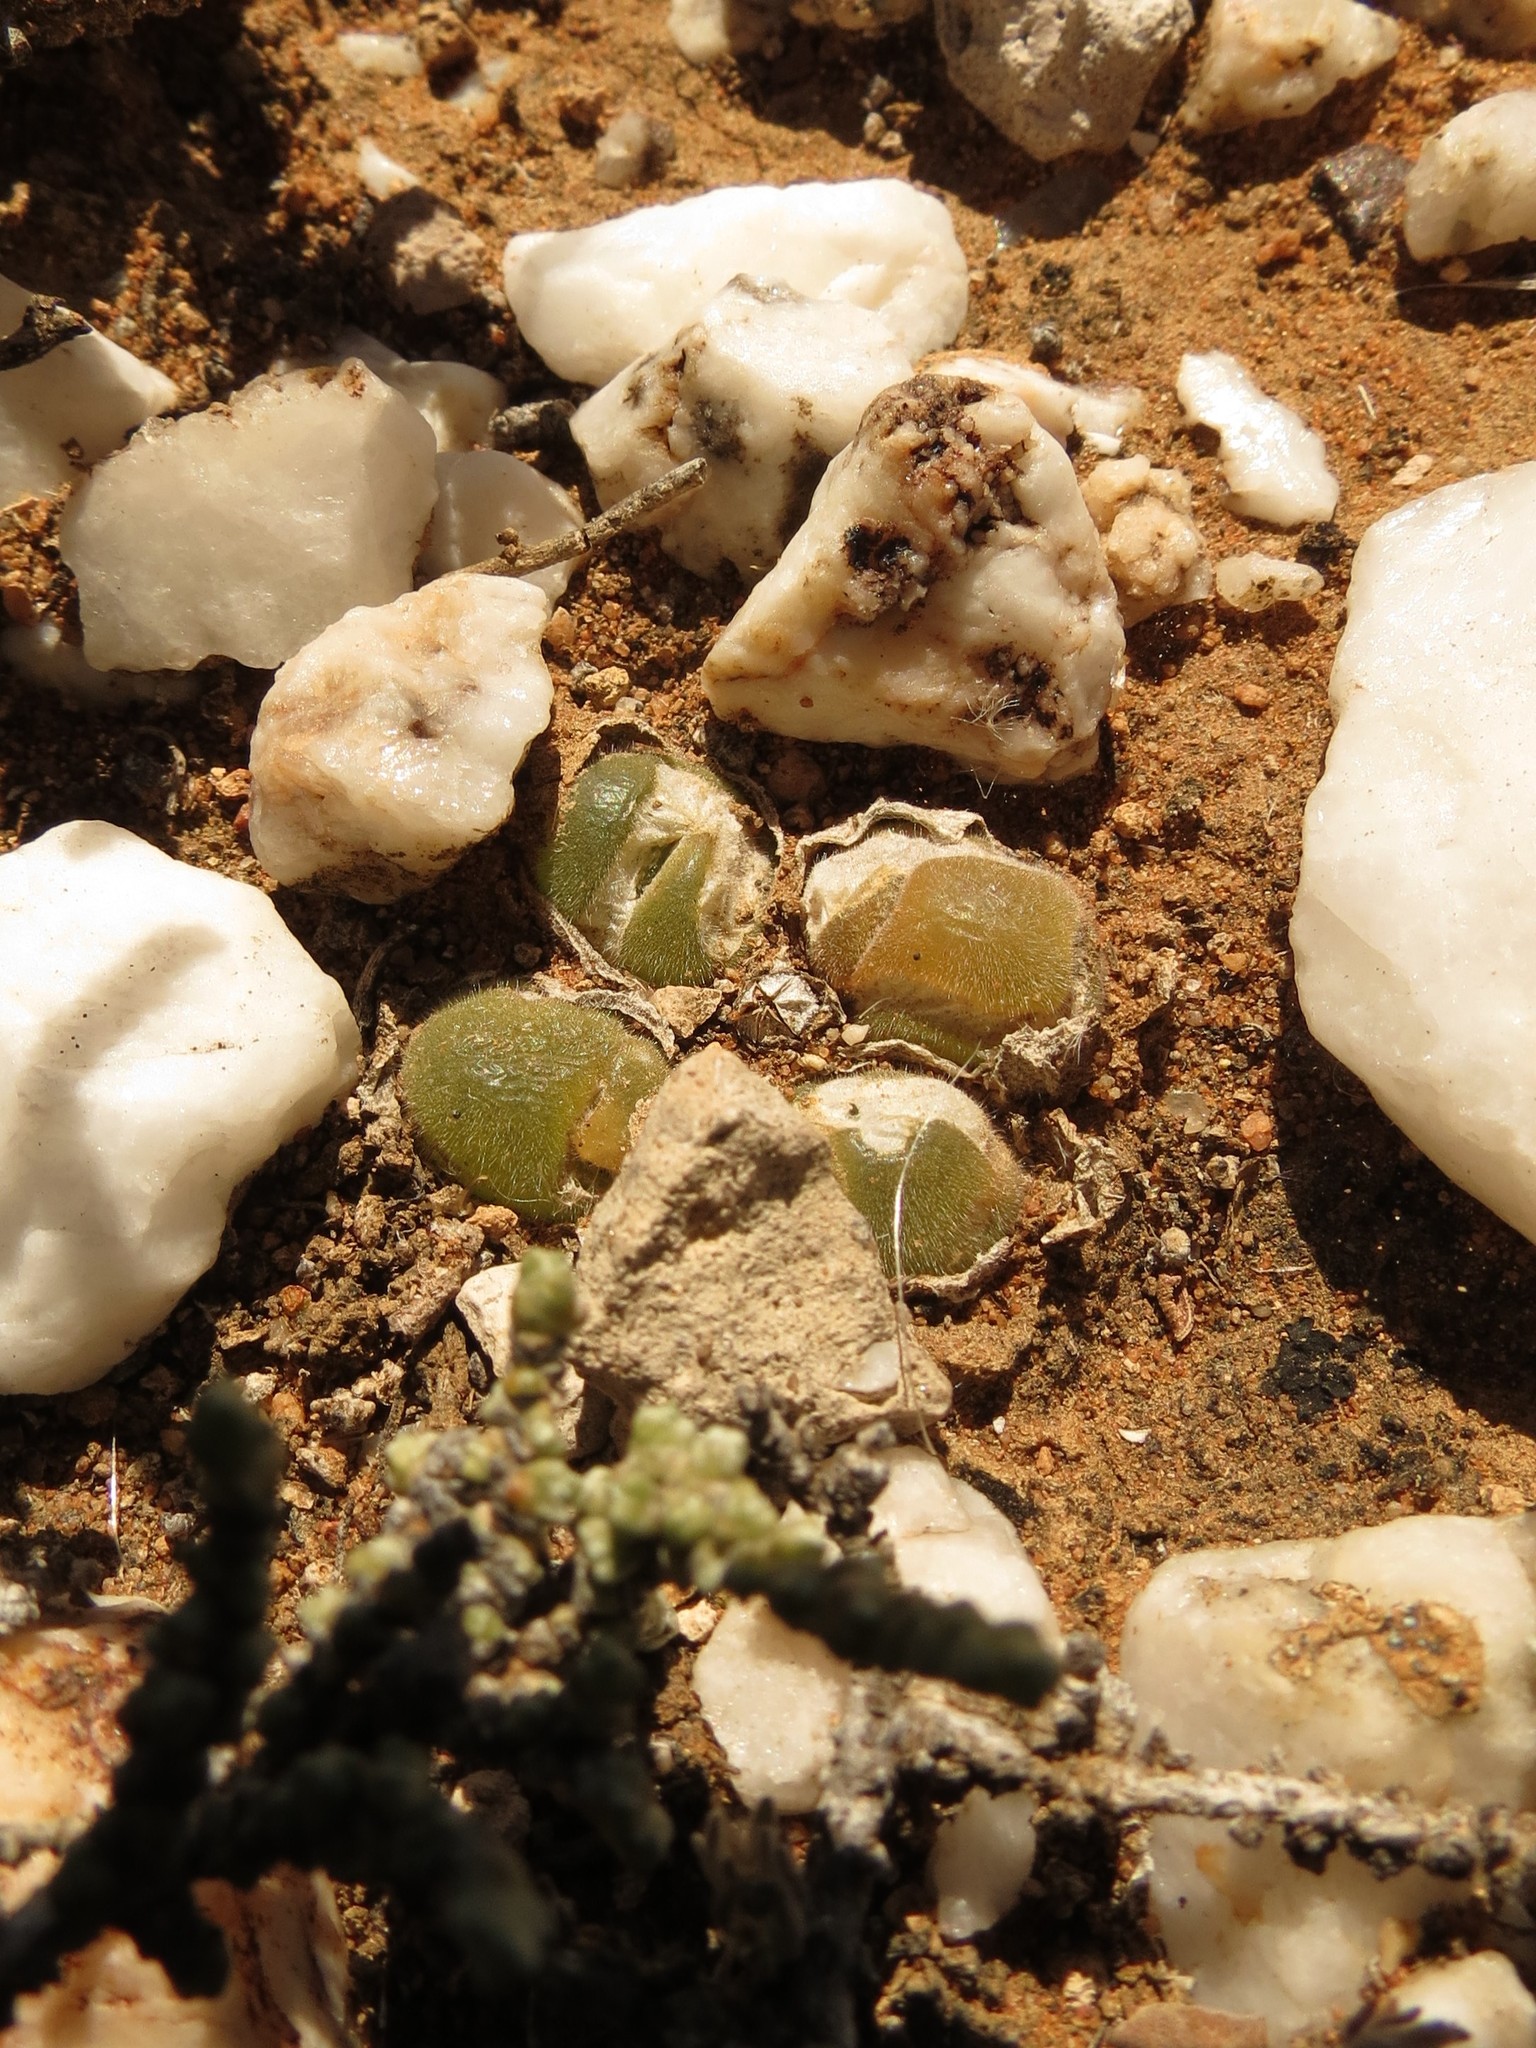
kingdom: Plantae
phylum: Tracheophyta
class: Magnoliopsida
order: Caryophyllales
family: Aizoaceae
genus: Gibbaeum
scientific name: Gibbaeum pilosulum
